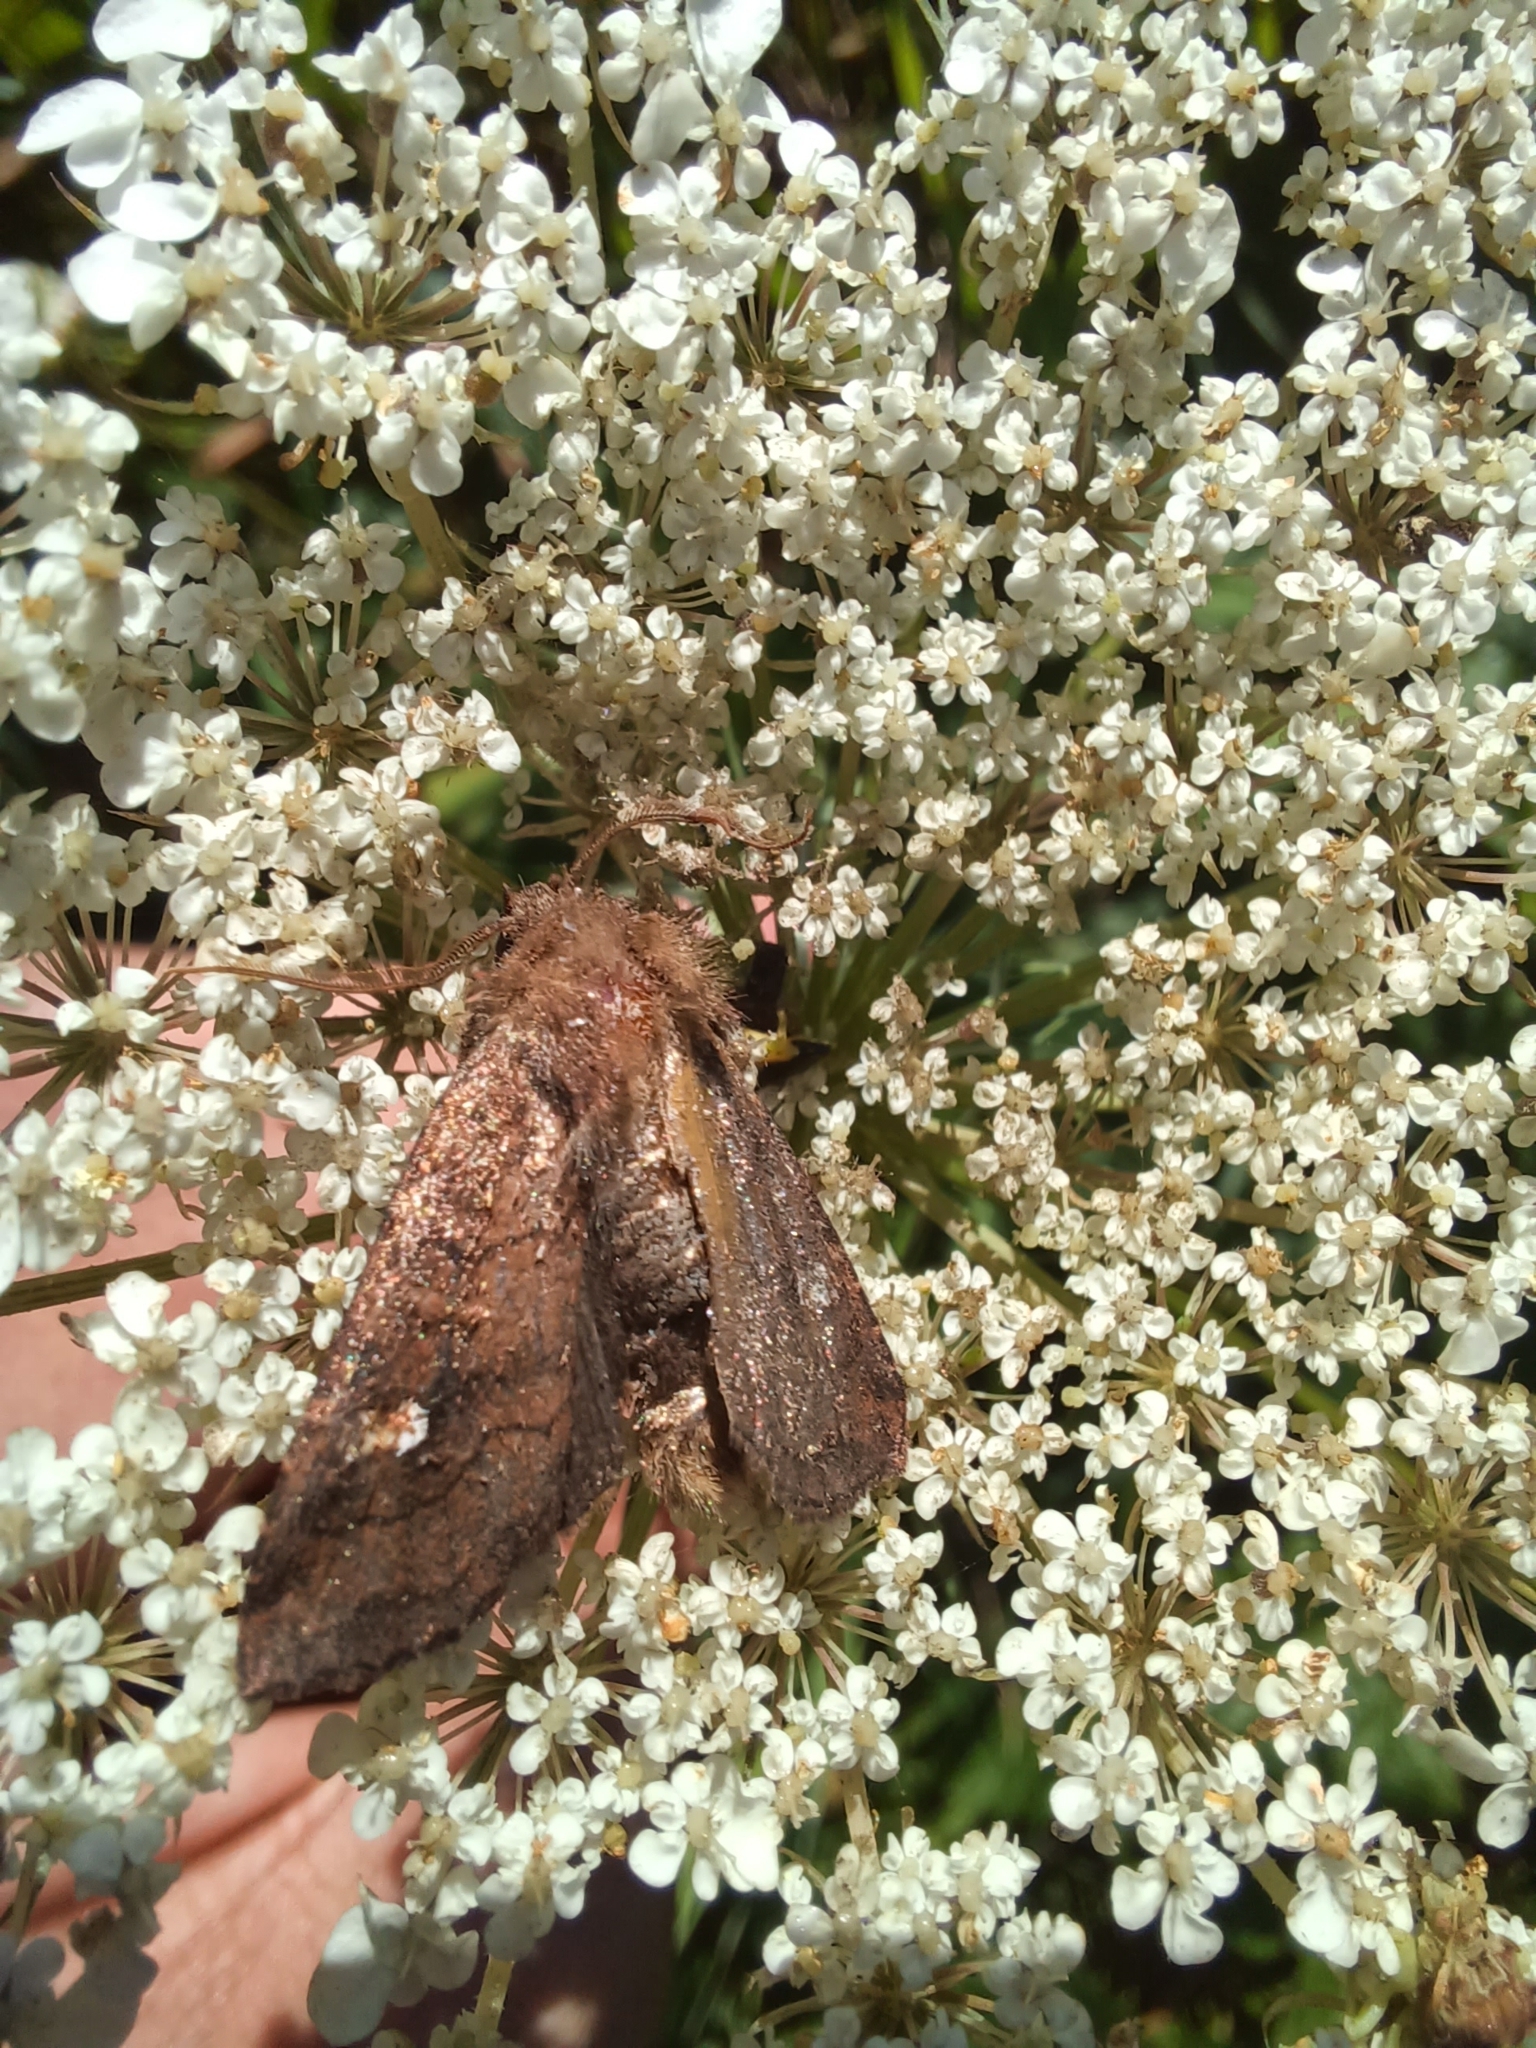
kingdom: Animalia
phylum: Arthropoda
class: Insecta
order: Lepidoptera
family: Noctuidae
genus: Tricholita
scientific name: Tricholita signata
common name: Signate quaker
